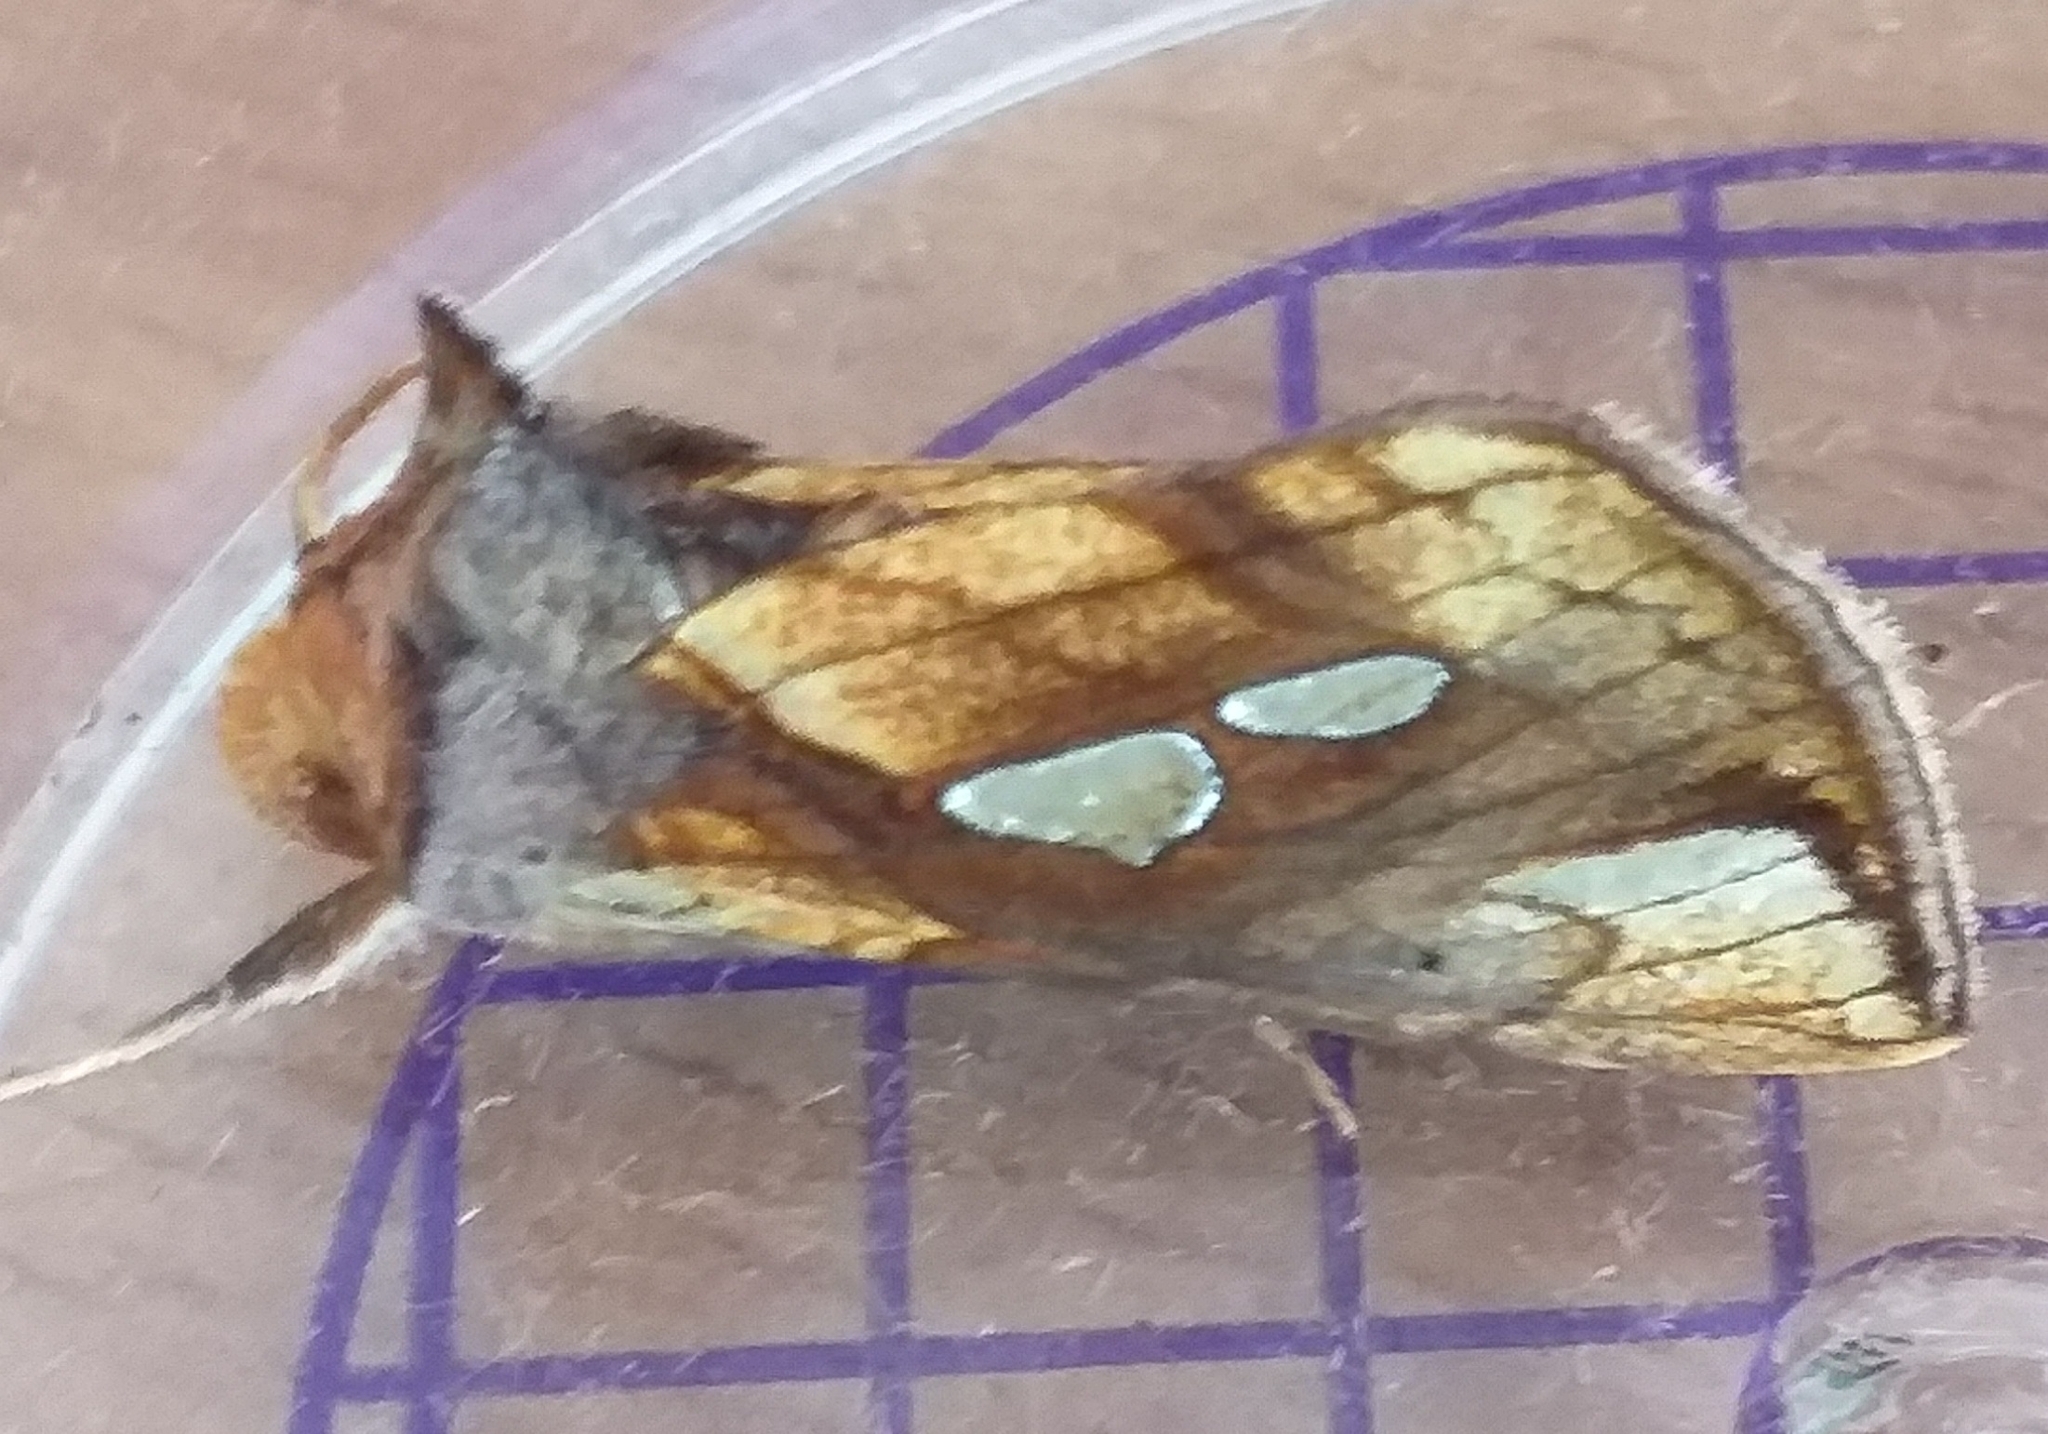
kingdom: Animalia
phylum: Arthropoda
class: Insecta
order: Lepidoptera
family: Noctuidae
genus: Plusia
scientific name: Plusia festucae
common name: Gold spot
